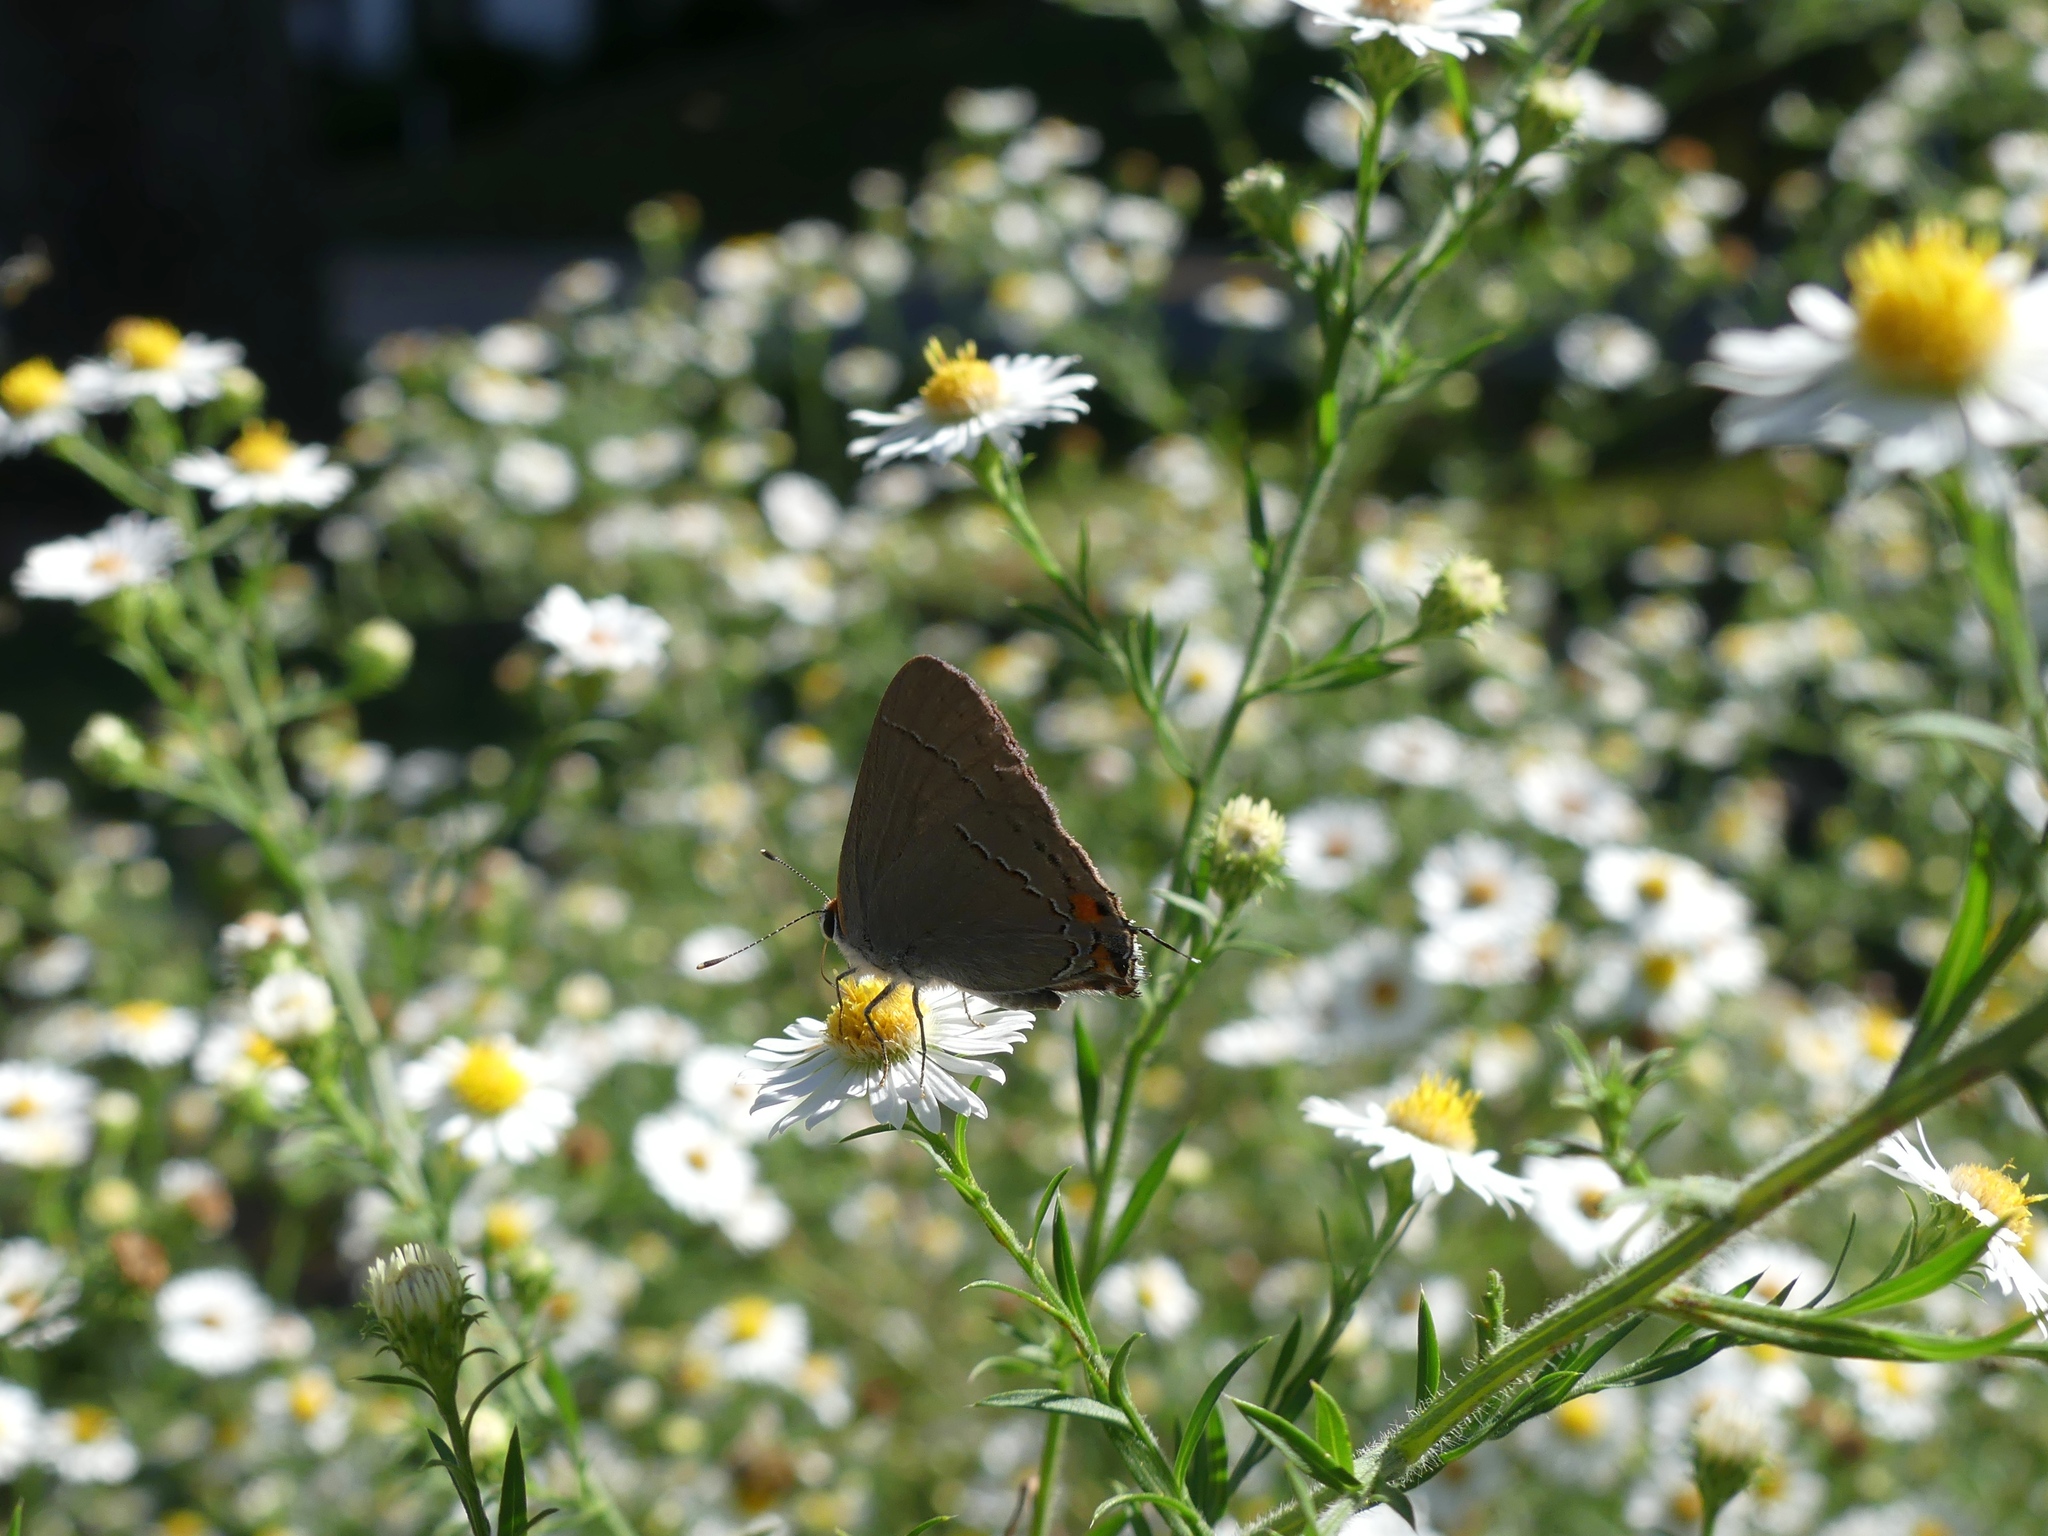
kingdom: Animalia
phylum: Arthropoda
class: Insecta
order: Lepidoptera
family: Lycaenidae
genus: Strymon
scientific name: Strymon melinus
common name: Gray hairstreak
